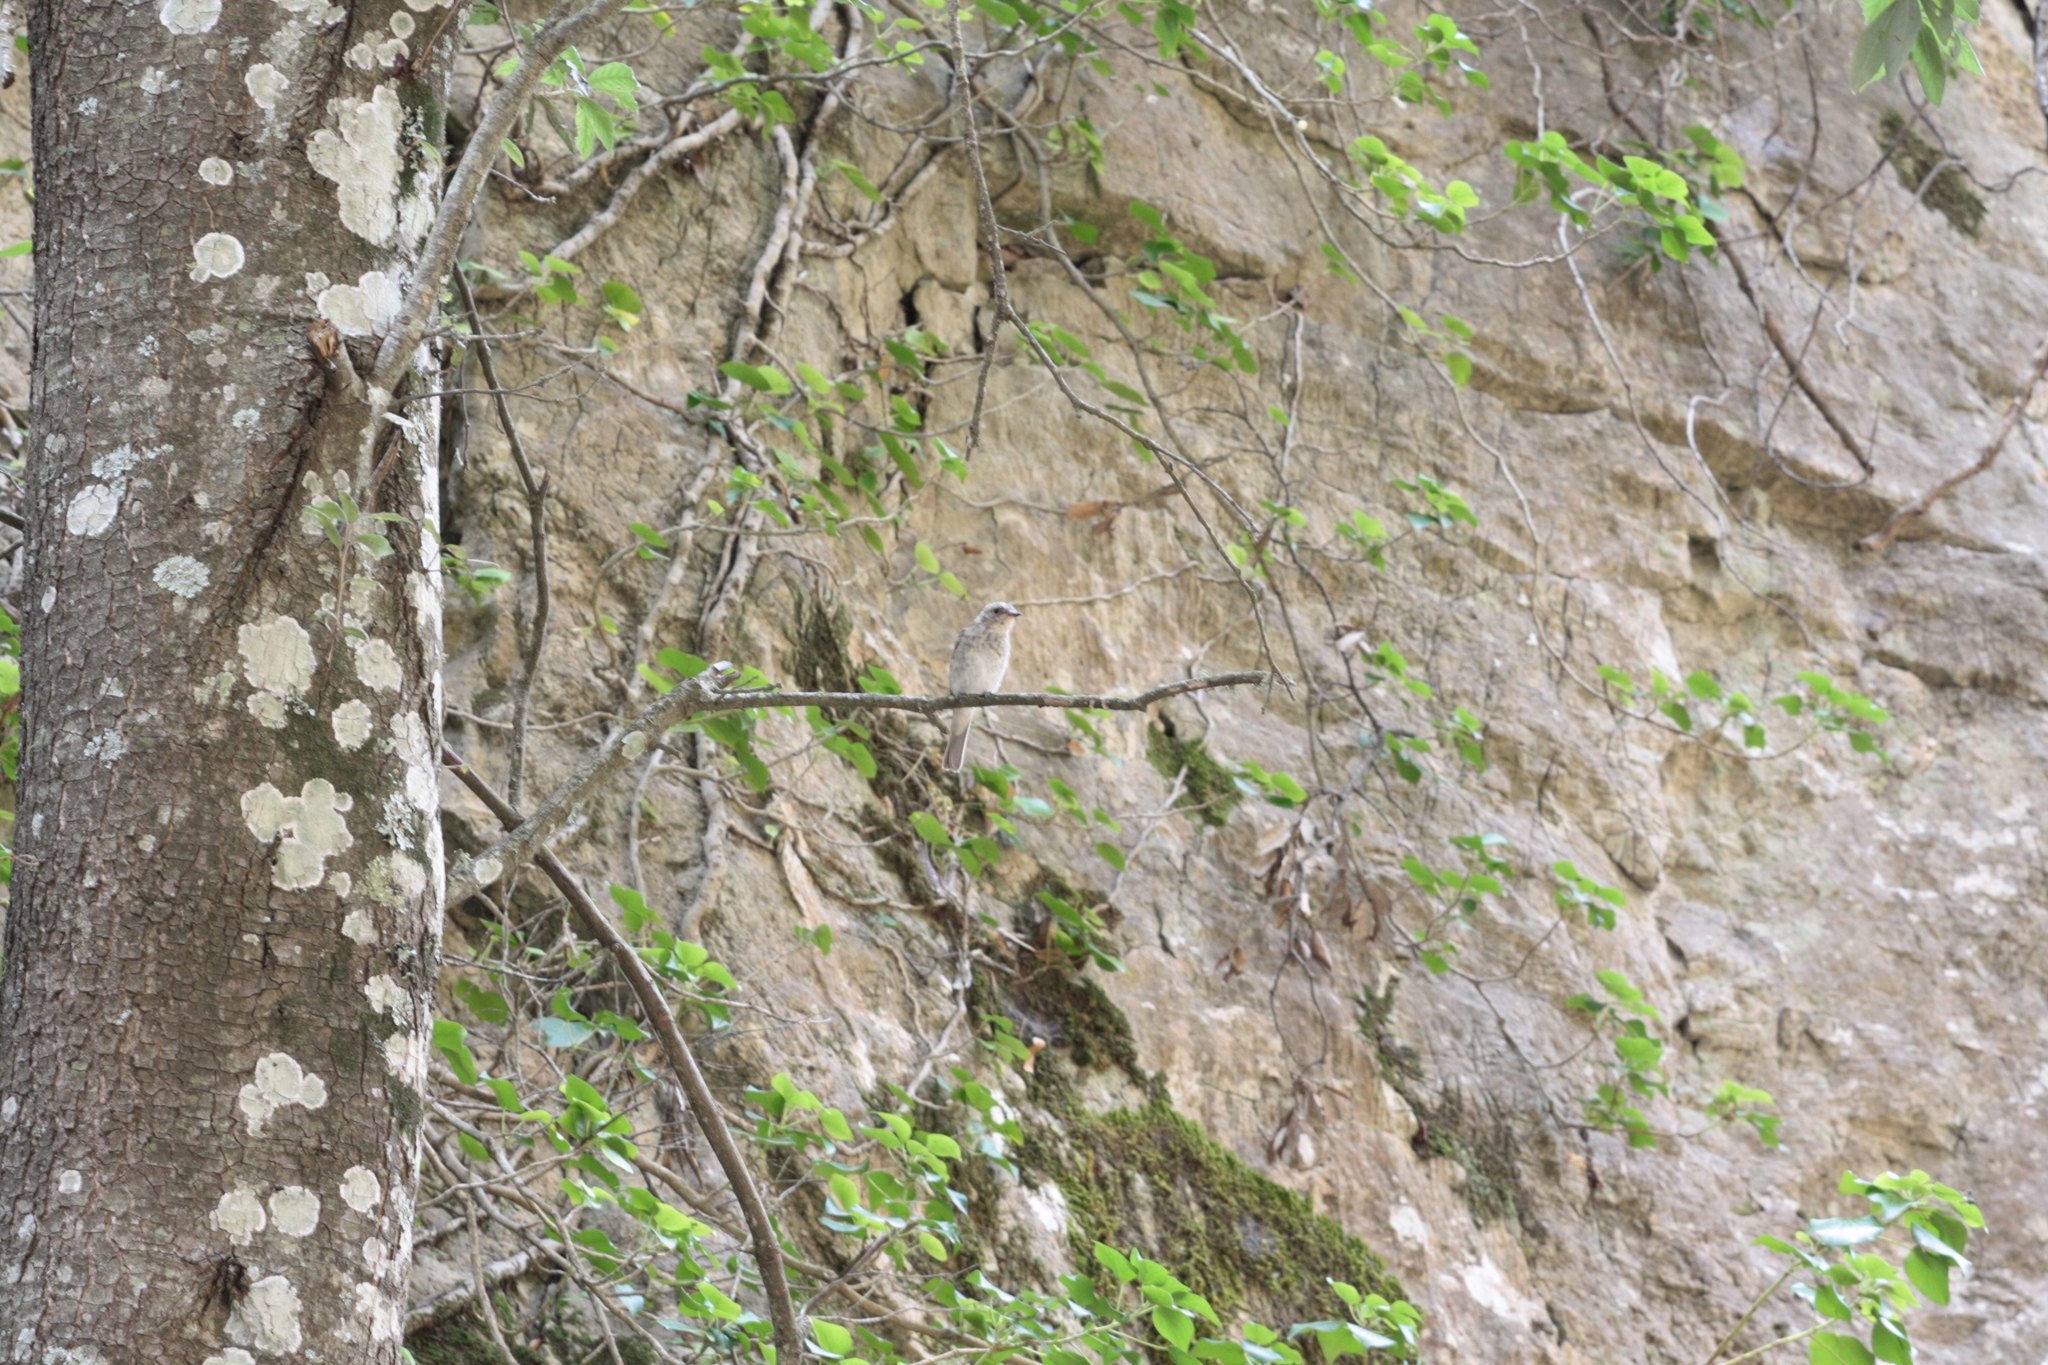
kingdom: Animalia
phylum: Chordata
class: Aves
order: Passeriformes
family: Muscicapidae
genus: Muscicapa
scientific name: Muscicapa striata
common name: Spotted flycatcher
